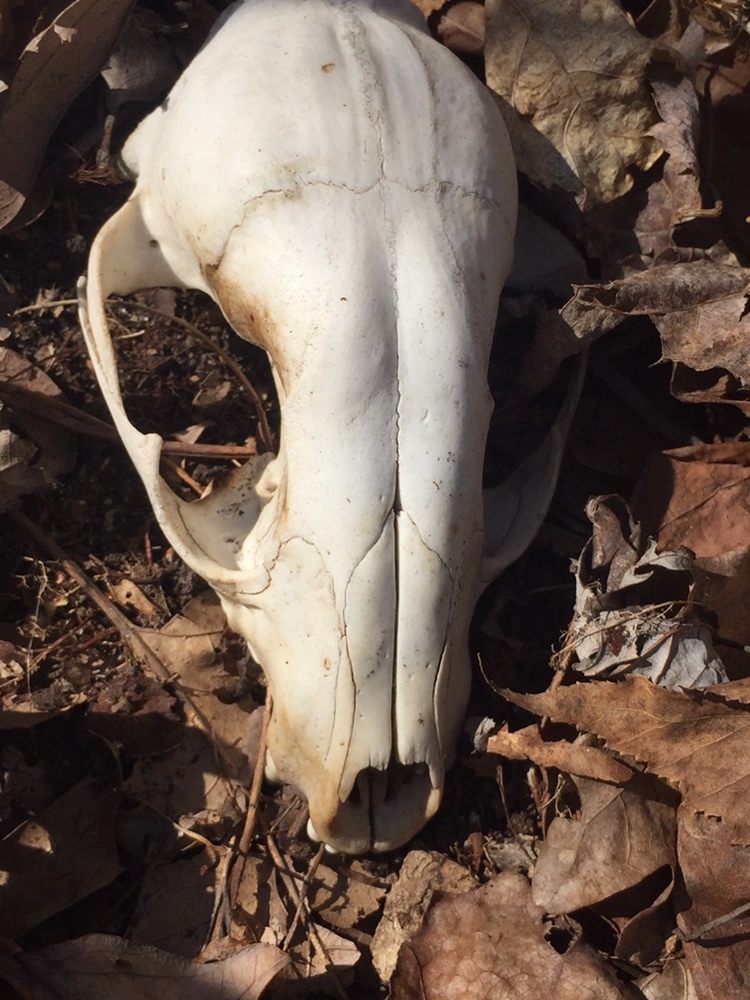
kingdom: Animalia
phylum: Chordata
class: Mammalia
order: Carnivora
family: Procyonidae
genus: Procyon
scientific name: Procyon lotor
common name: Raccoon
